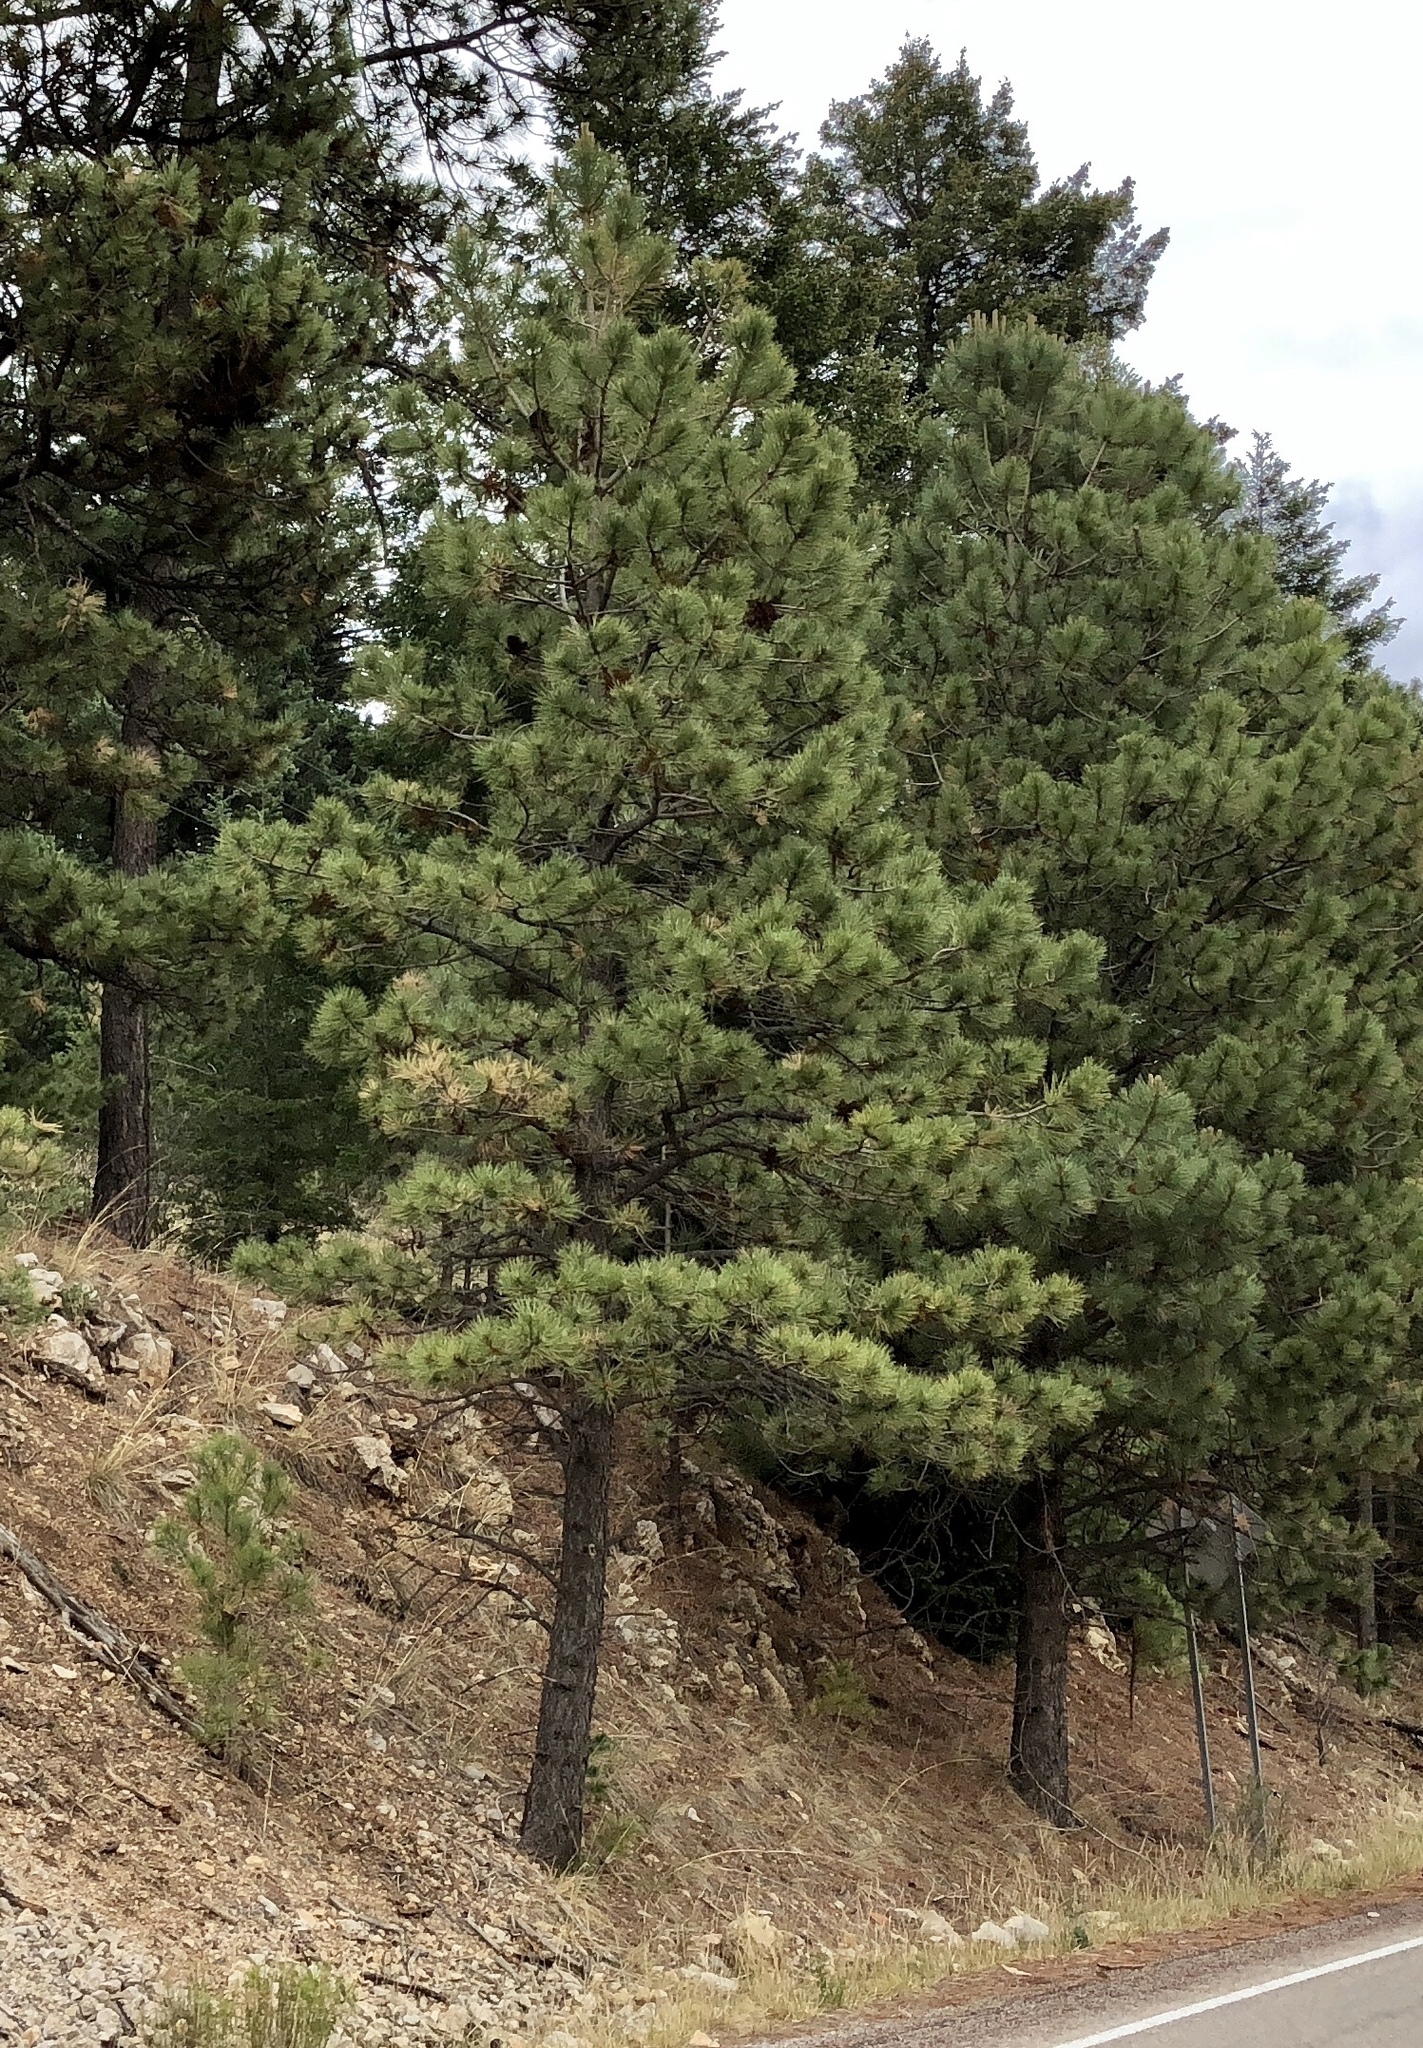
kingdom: Plantae
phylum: Tracheophyta
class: Pinopsida
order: Pinales
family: Pinaceae
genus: Pinus
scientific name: Pinus ponderosa
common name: Western yellow-pine
